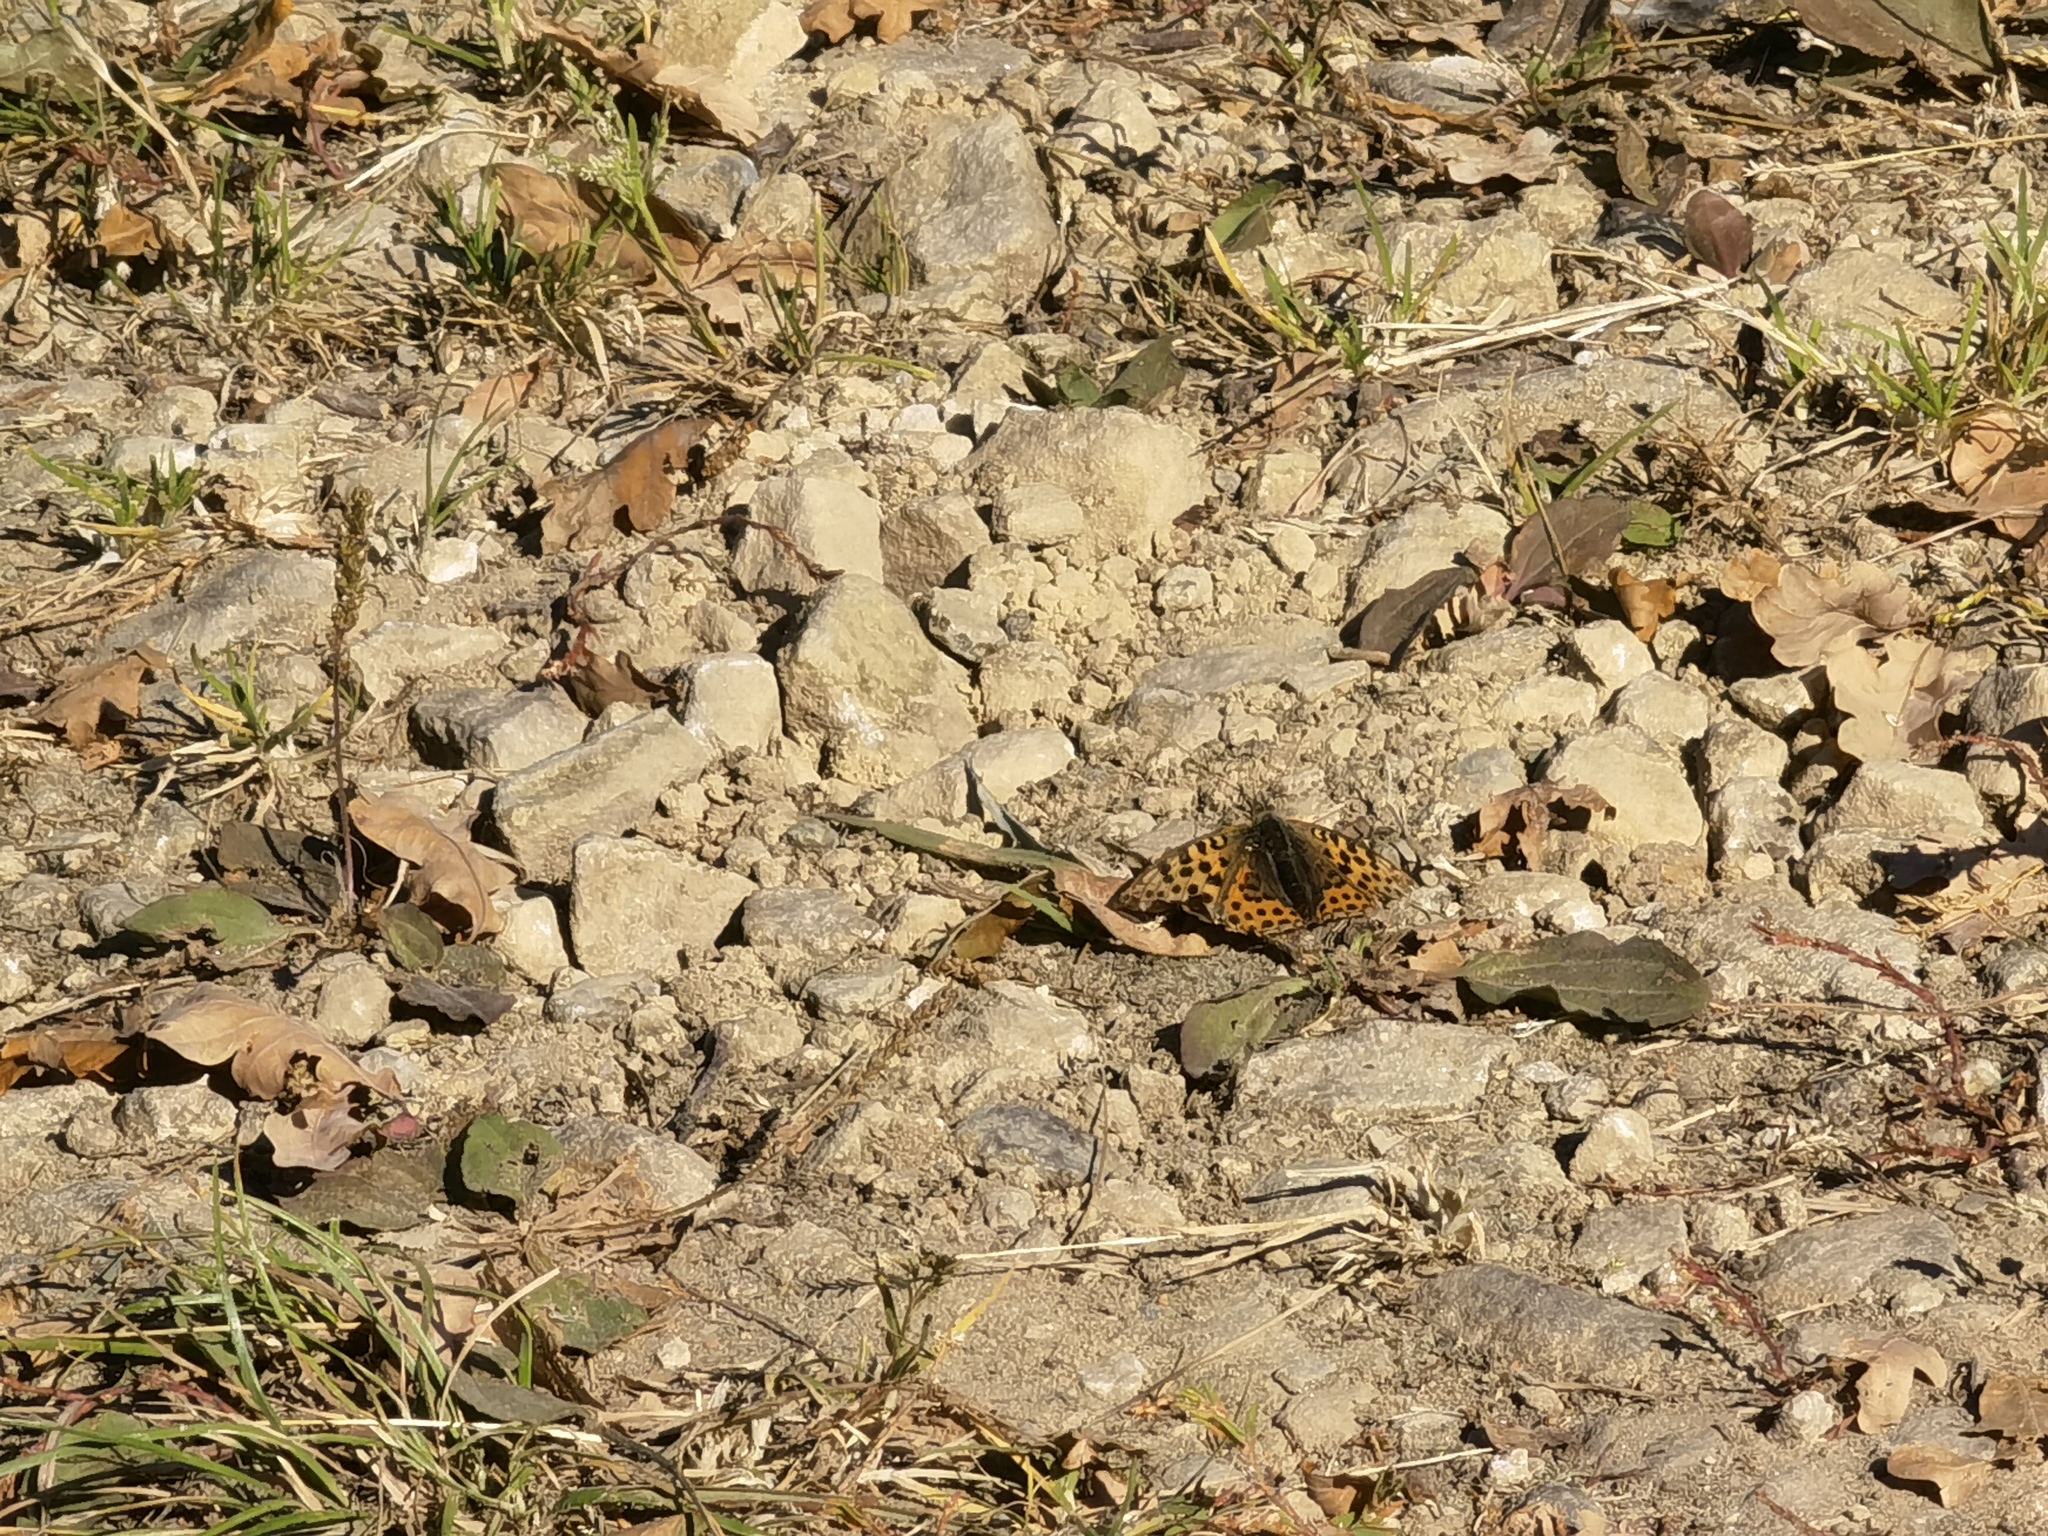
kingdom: Animalia
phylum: Arthropoda
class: Insecta
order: Lepidoptera
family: Nymphalidae
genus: Issoria
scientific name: Issoria lathonia
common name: Queen of spain fritillary
